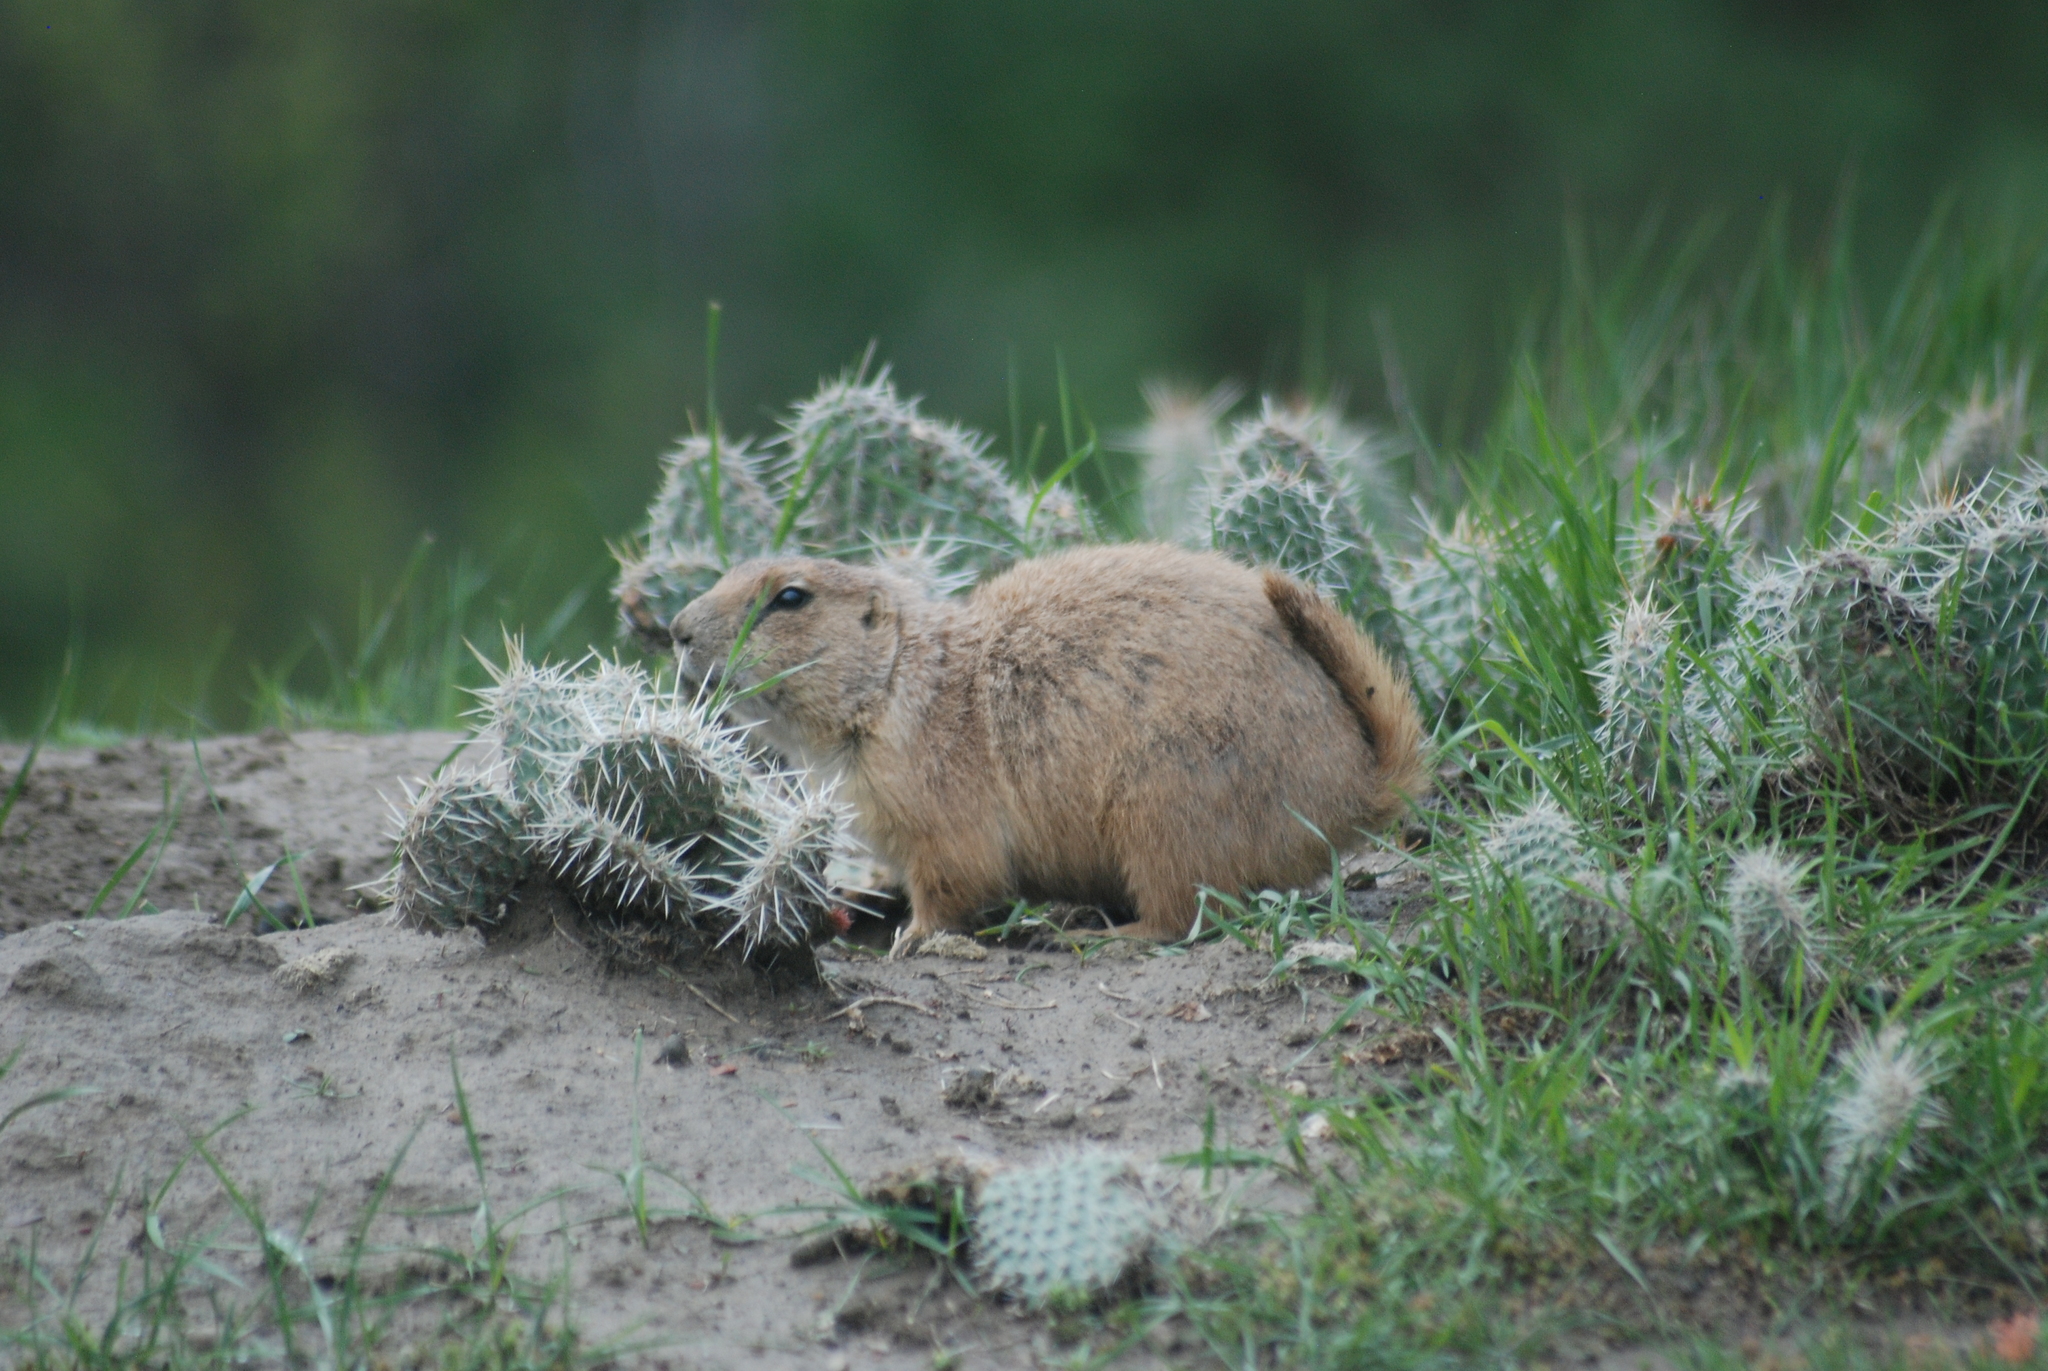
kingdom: Animalia
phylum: Chordata
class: Mammalia
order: Rodentia
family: Sciuridae
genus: Cynomys
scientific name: Cynomys ludovicianus
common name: Black-tailed prairie dog
